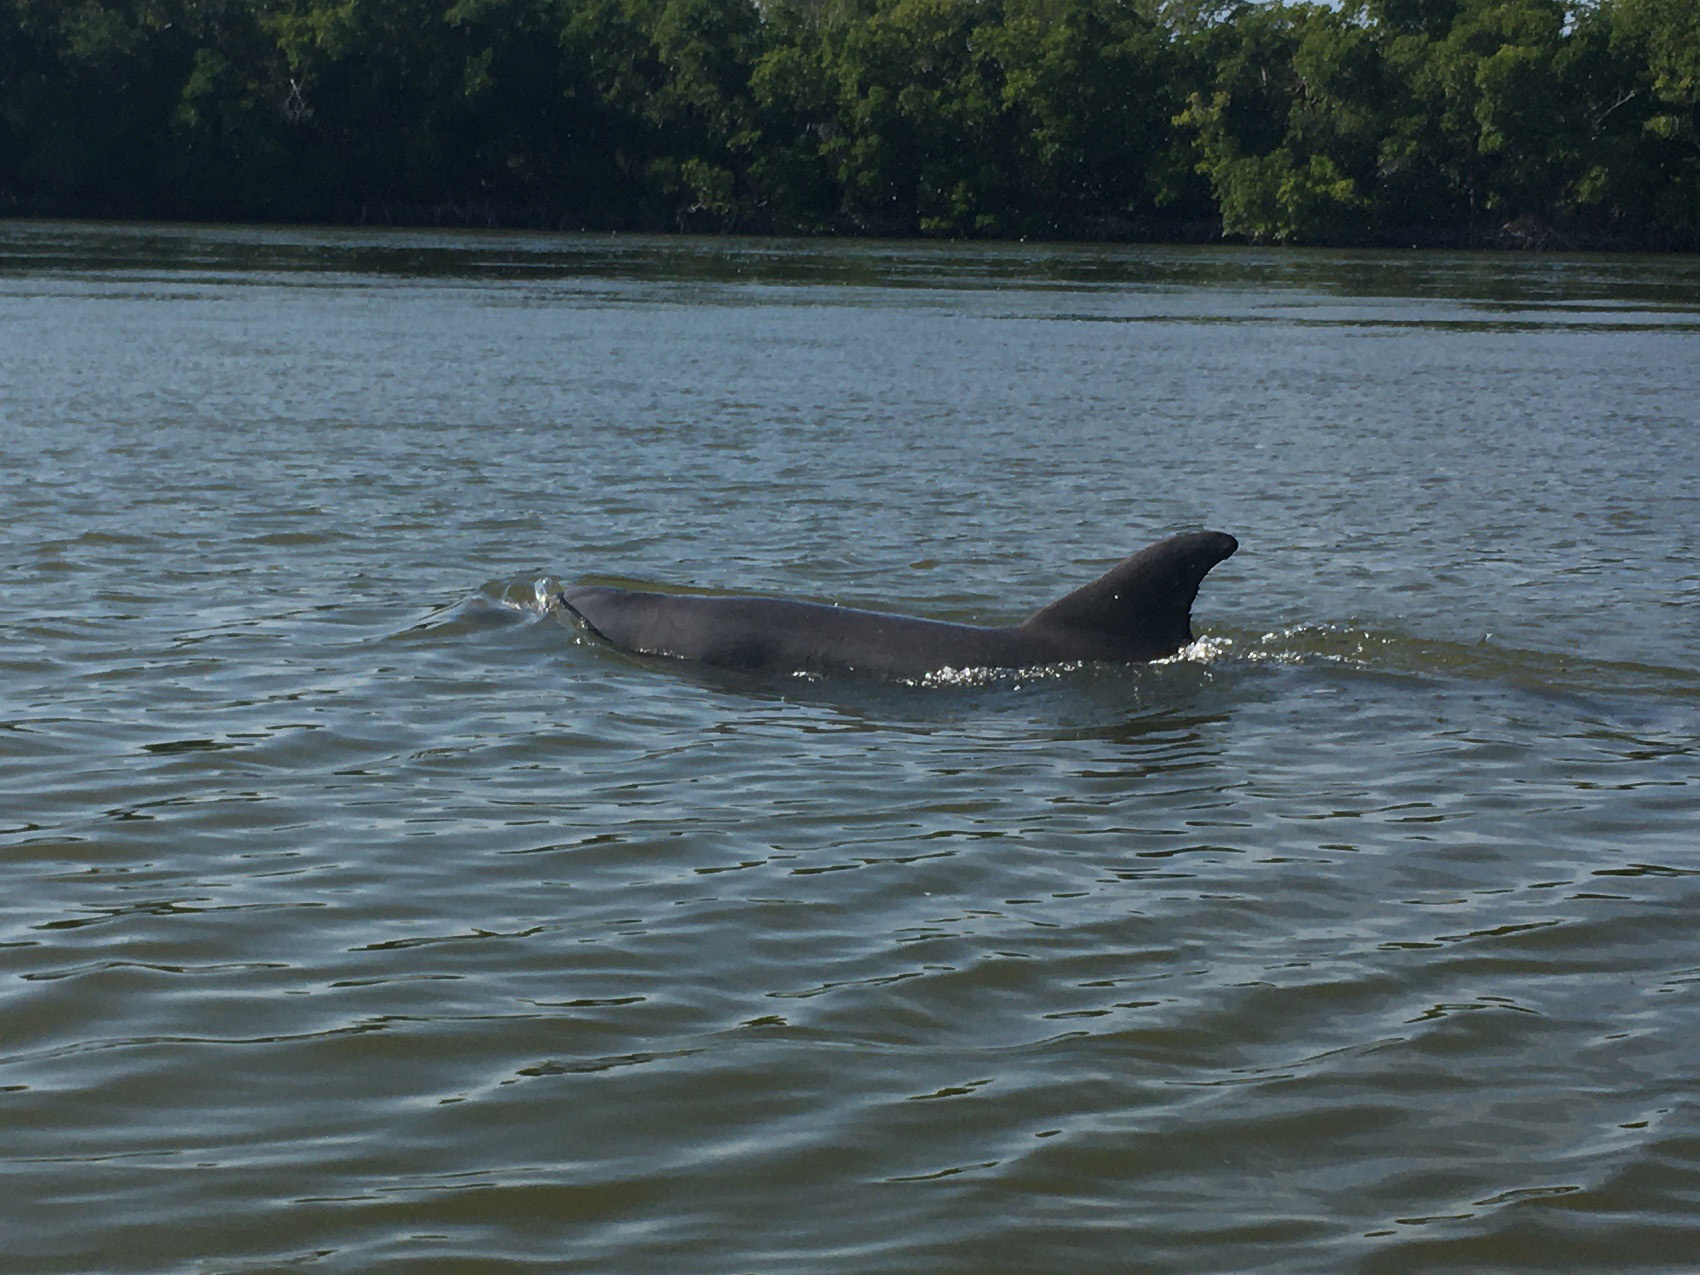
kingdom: Animalia
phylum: Chordata
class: Mammalia
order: Cetacea
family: Delphinidae
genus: Tursiops
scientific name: Tursiops truncatus
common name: Bottlenose dolphin
